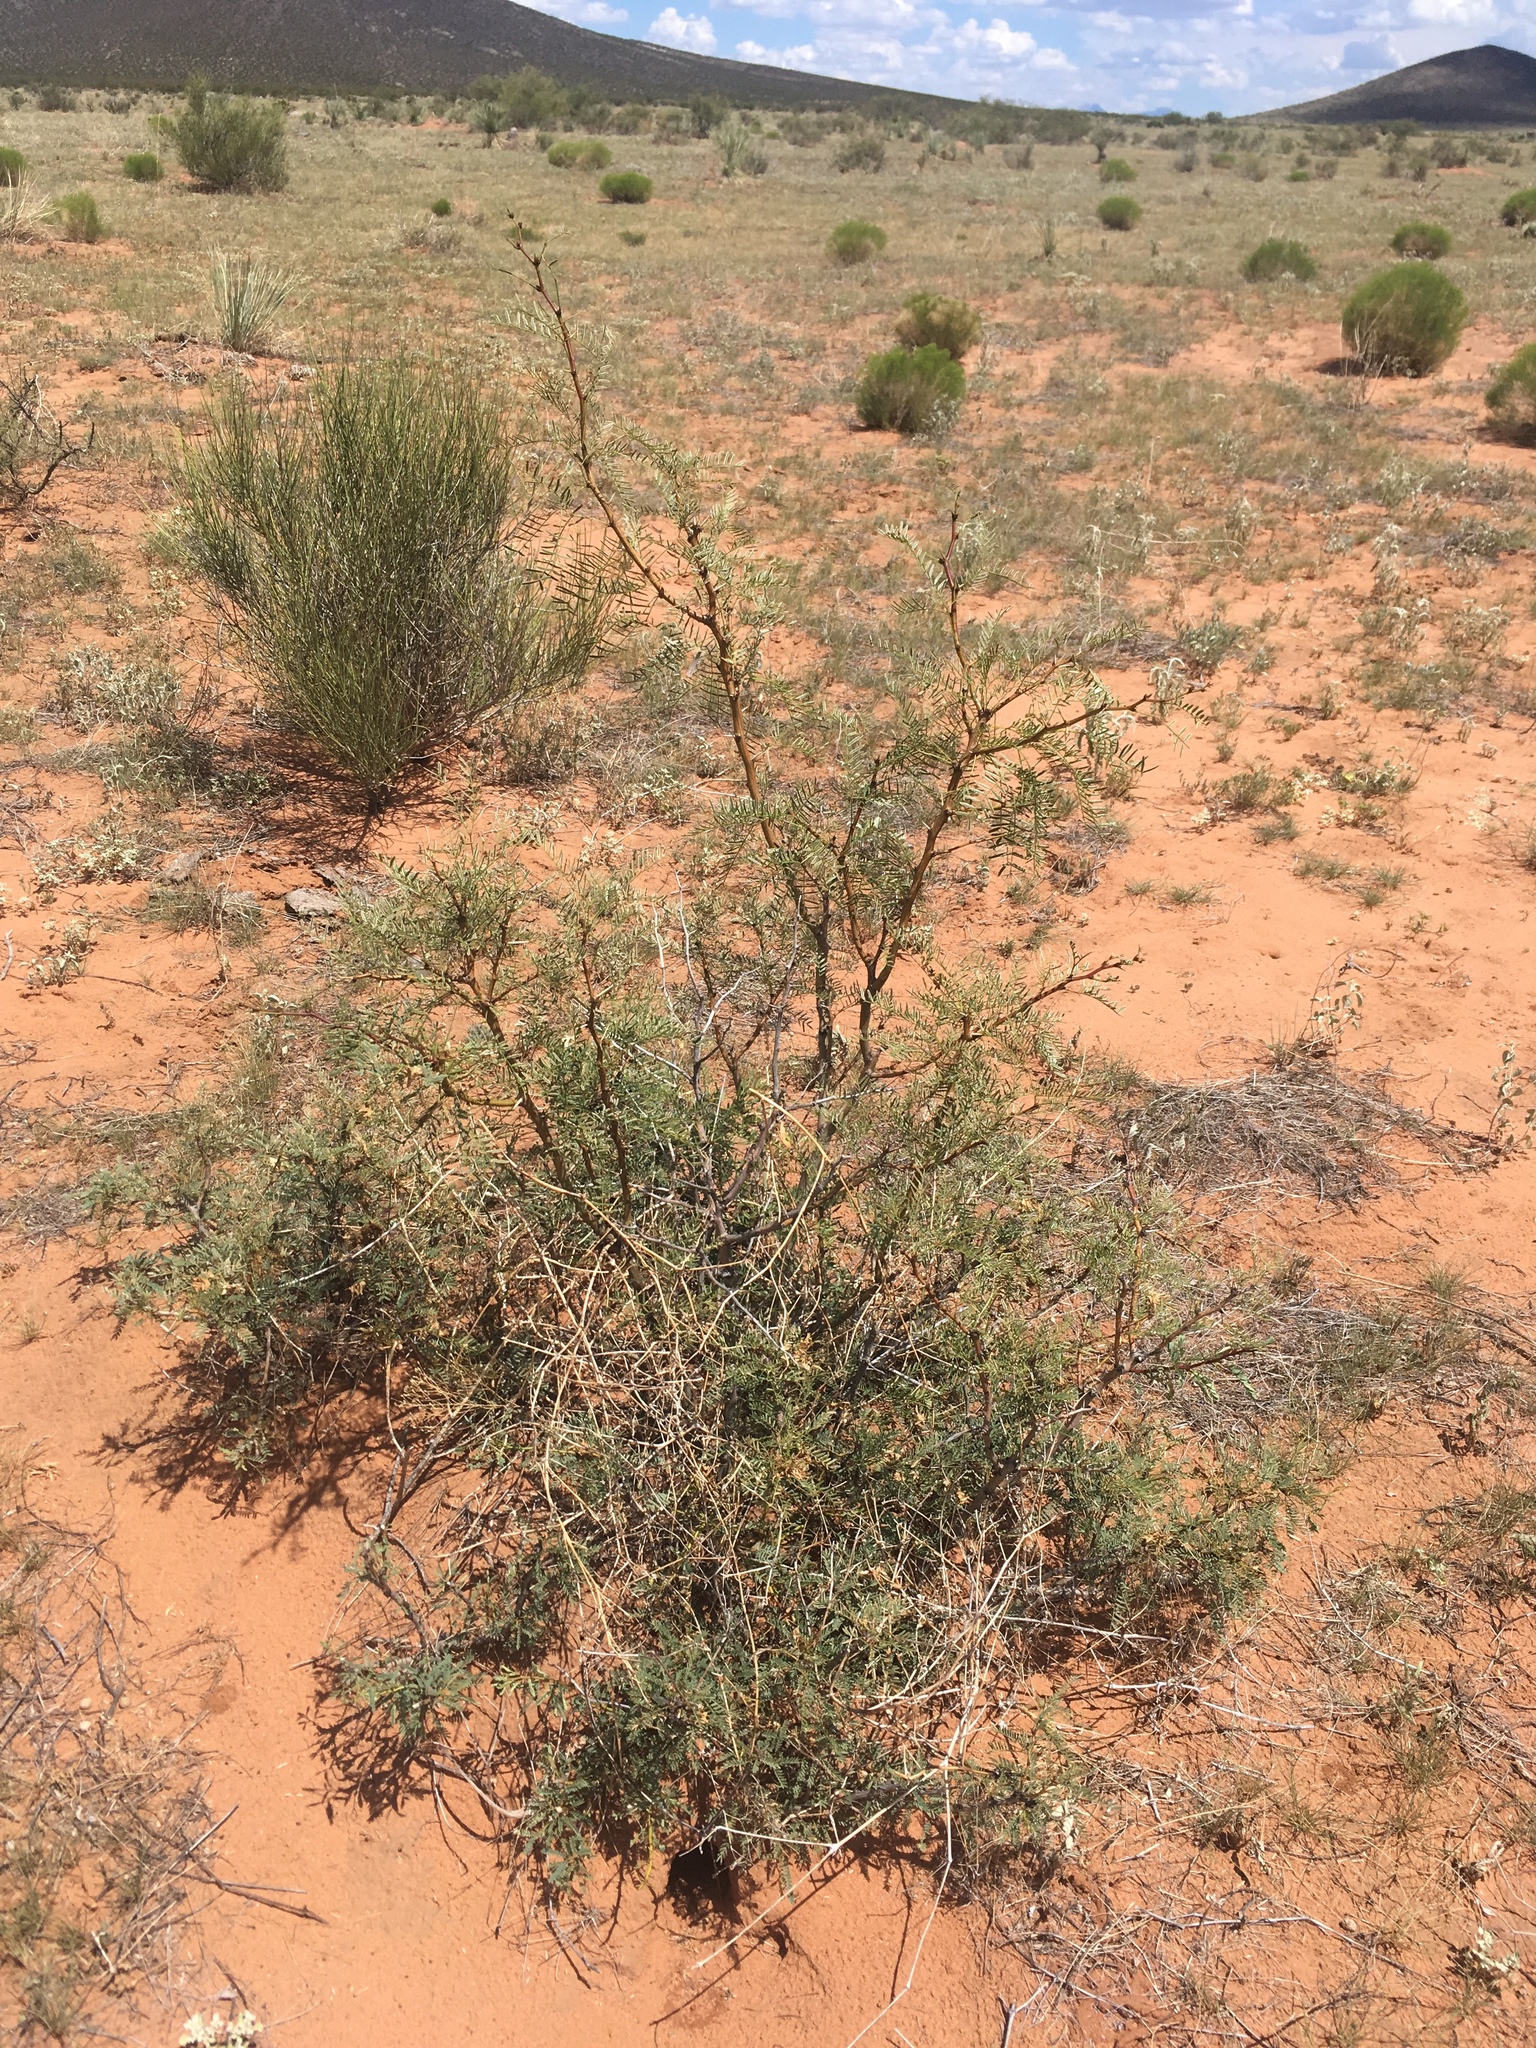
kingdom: Plantae
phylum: Tracheophyta
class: Magnoliopsida
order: Fabales
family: Fabaceae
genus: Prosopis
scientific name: Prosopis glandulosa
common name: Honey mesquite
